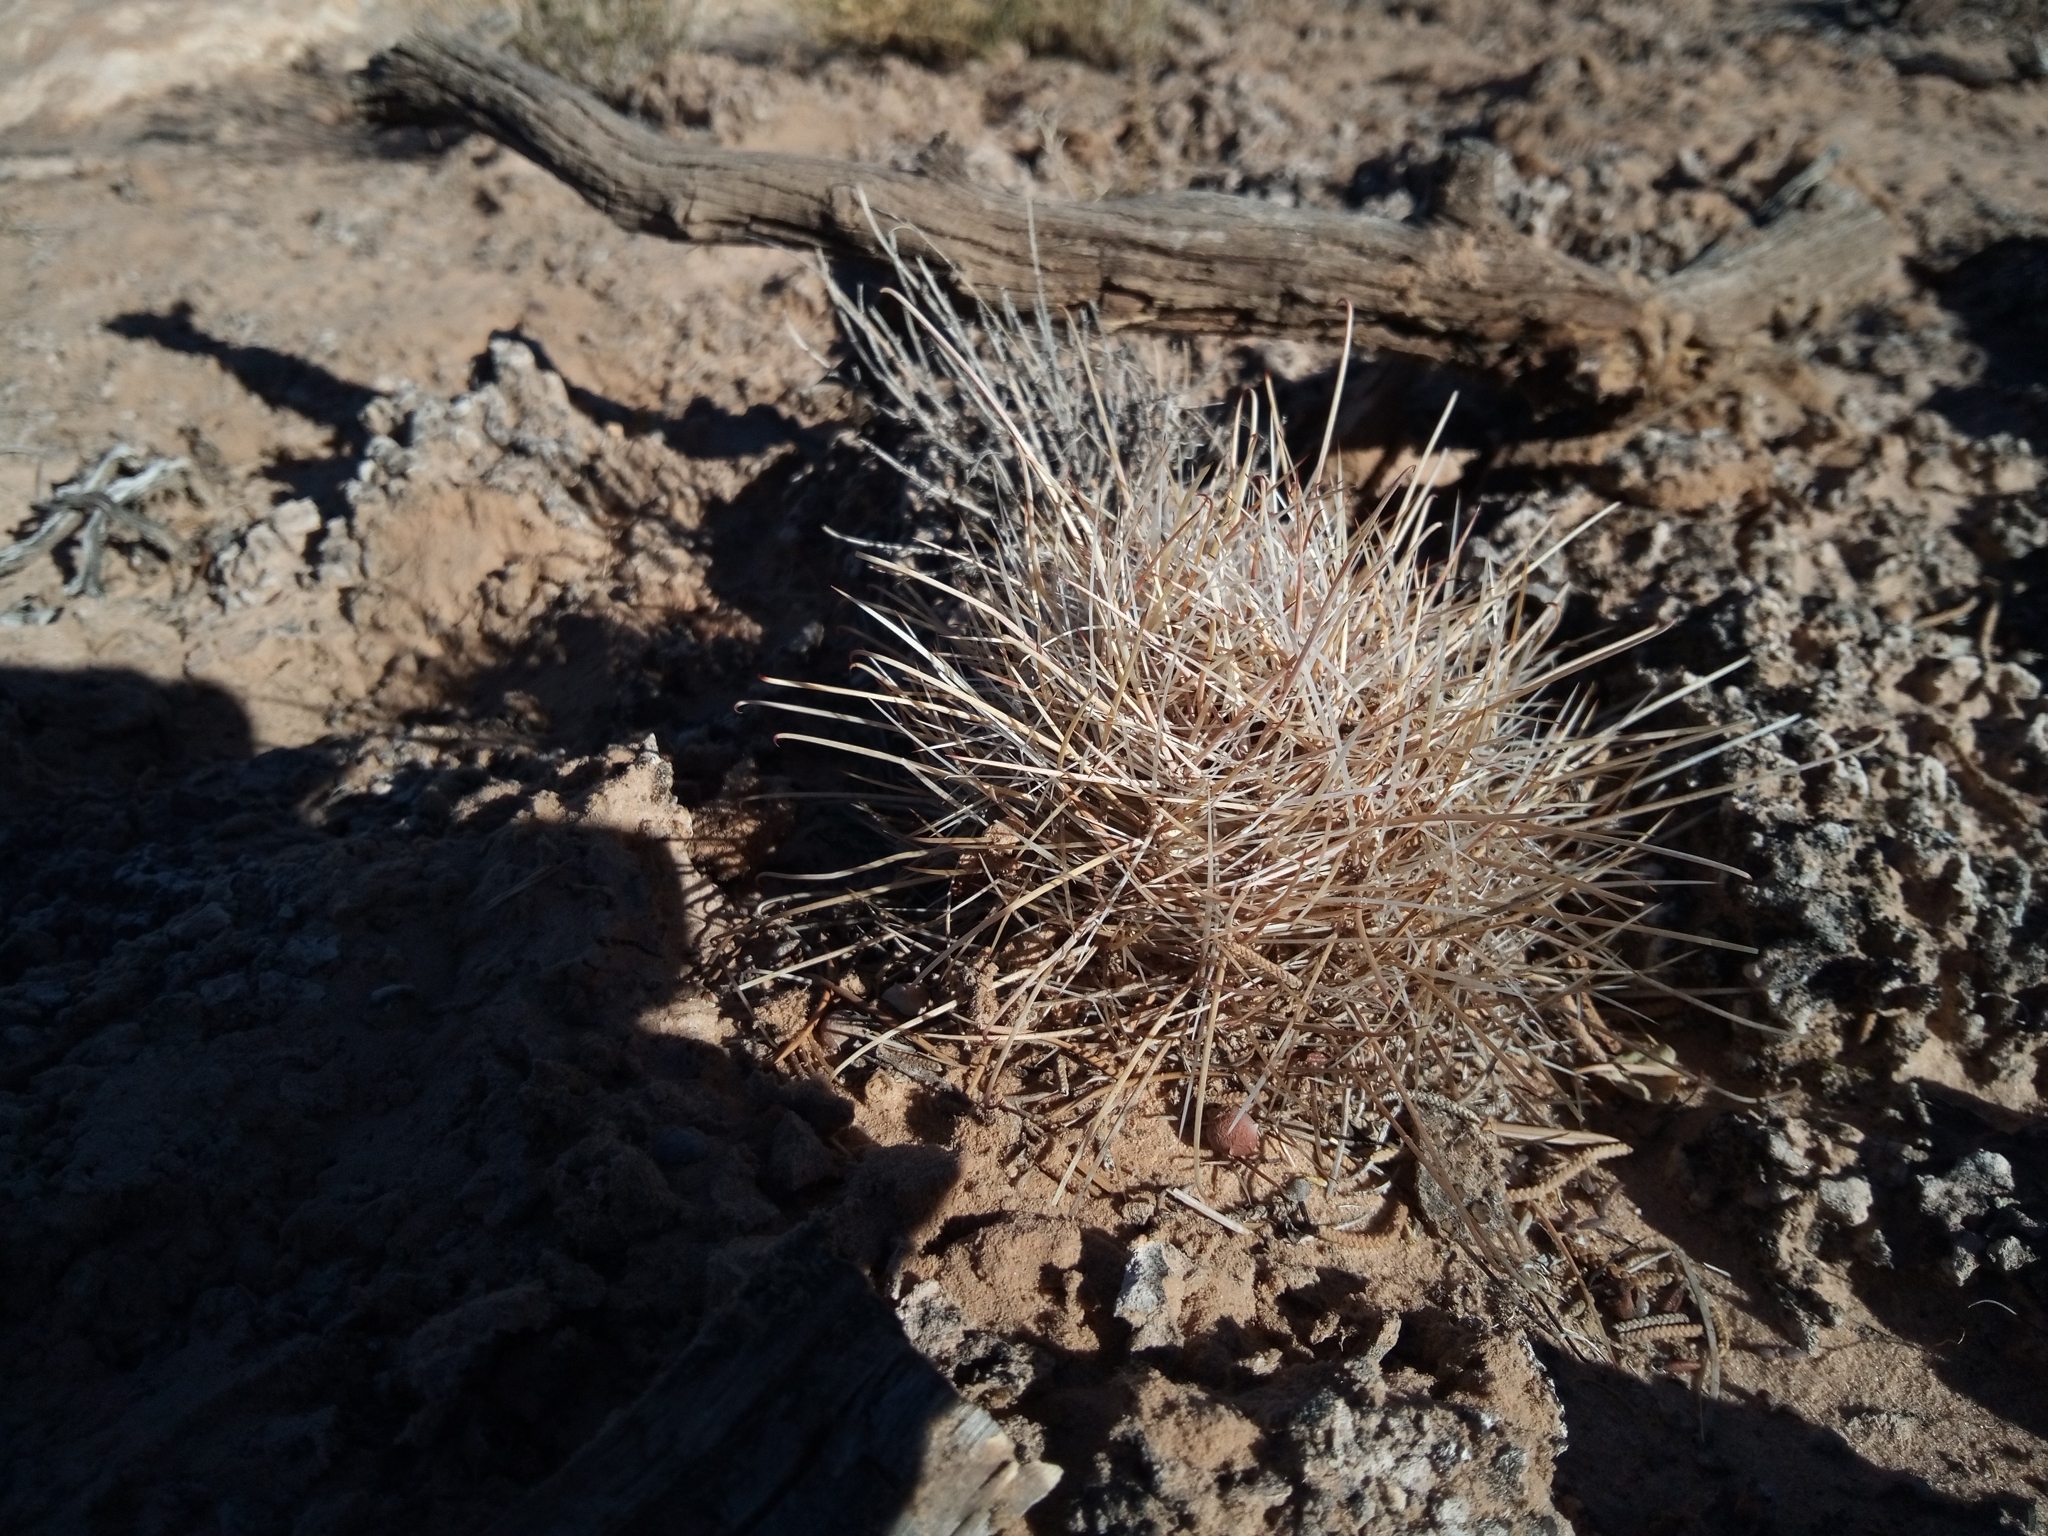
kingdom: Plantae
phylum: Tracheophyta
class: Magnoliopsida
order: Caryophyllales
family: Cactaceae
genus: Sclerocactus
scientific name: Sclerocactus parviflorus
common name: Small-flower fishhook cactus
